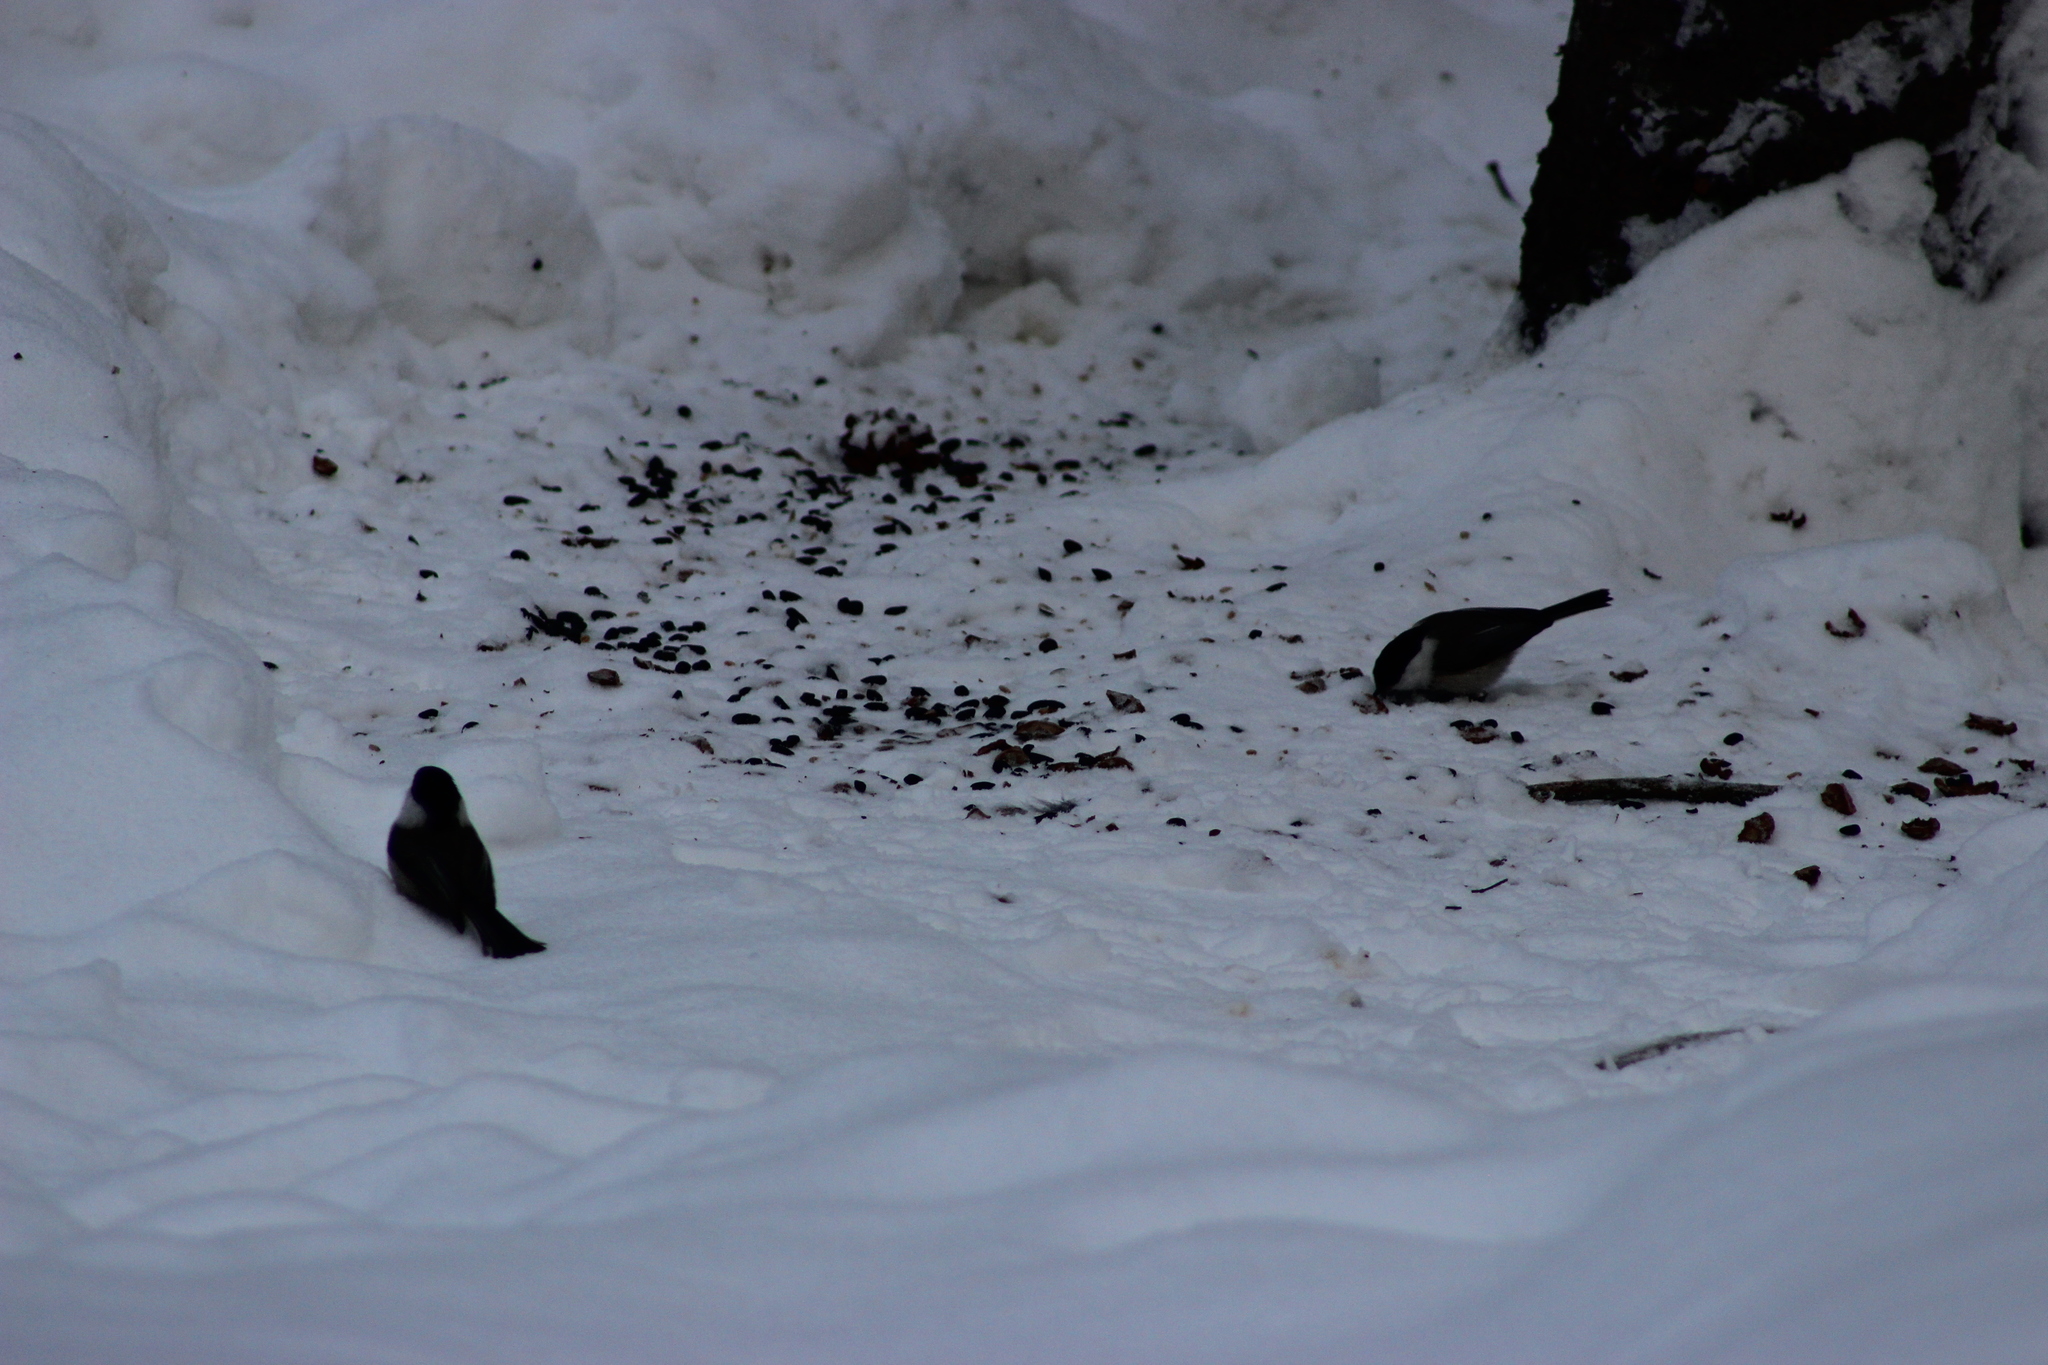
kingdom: Animalia
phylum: Chordata
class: Aves
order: Passeriformes
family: Paridae
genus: Poecile
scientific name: Poecile montanus
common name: Willow tit
